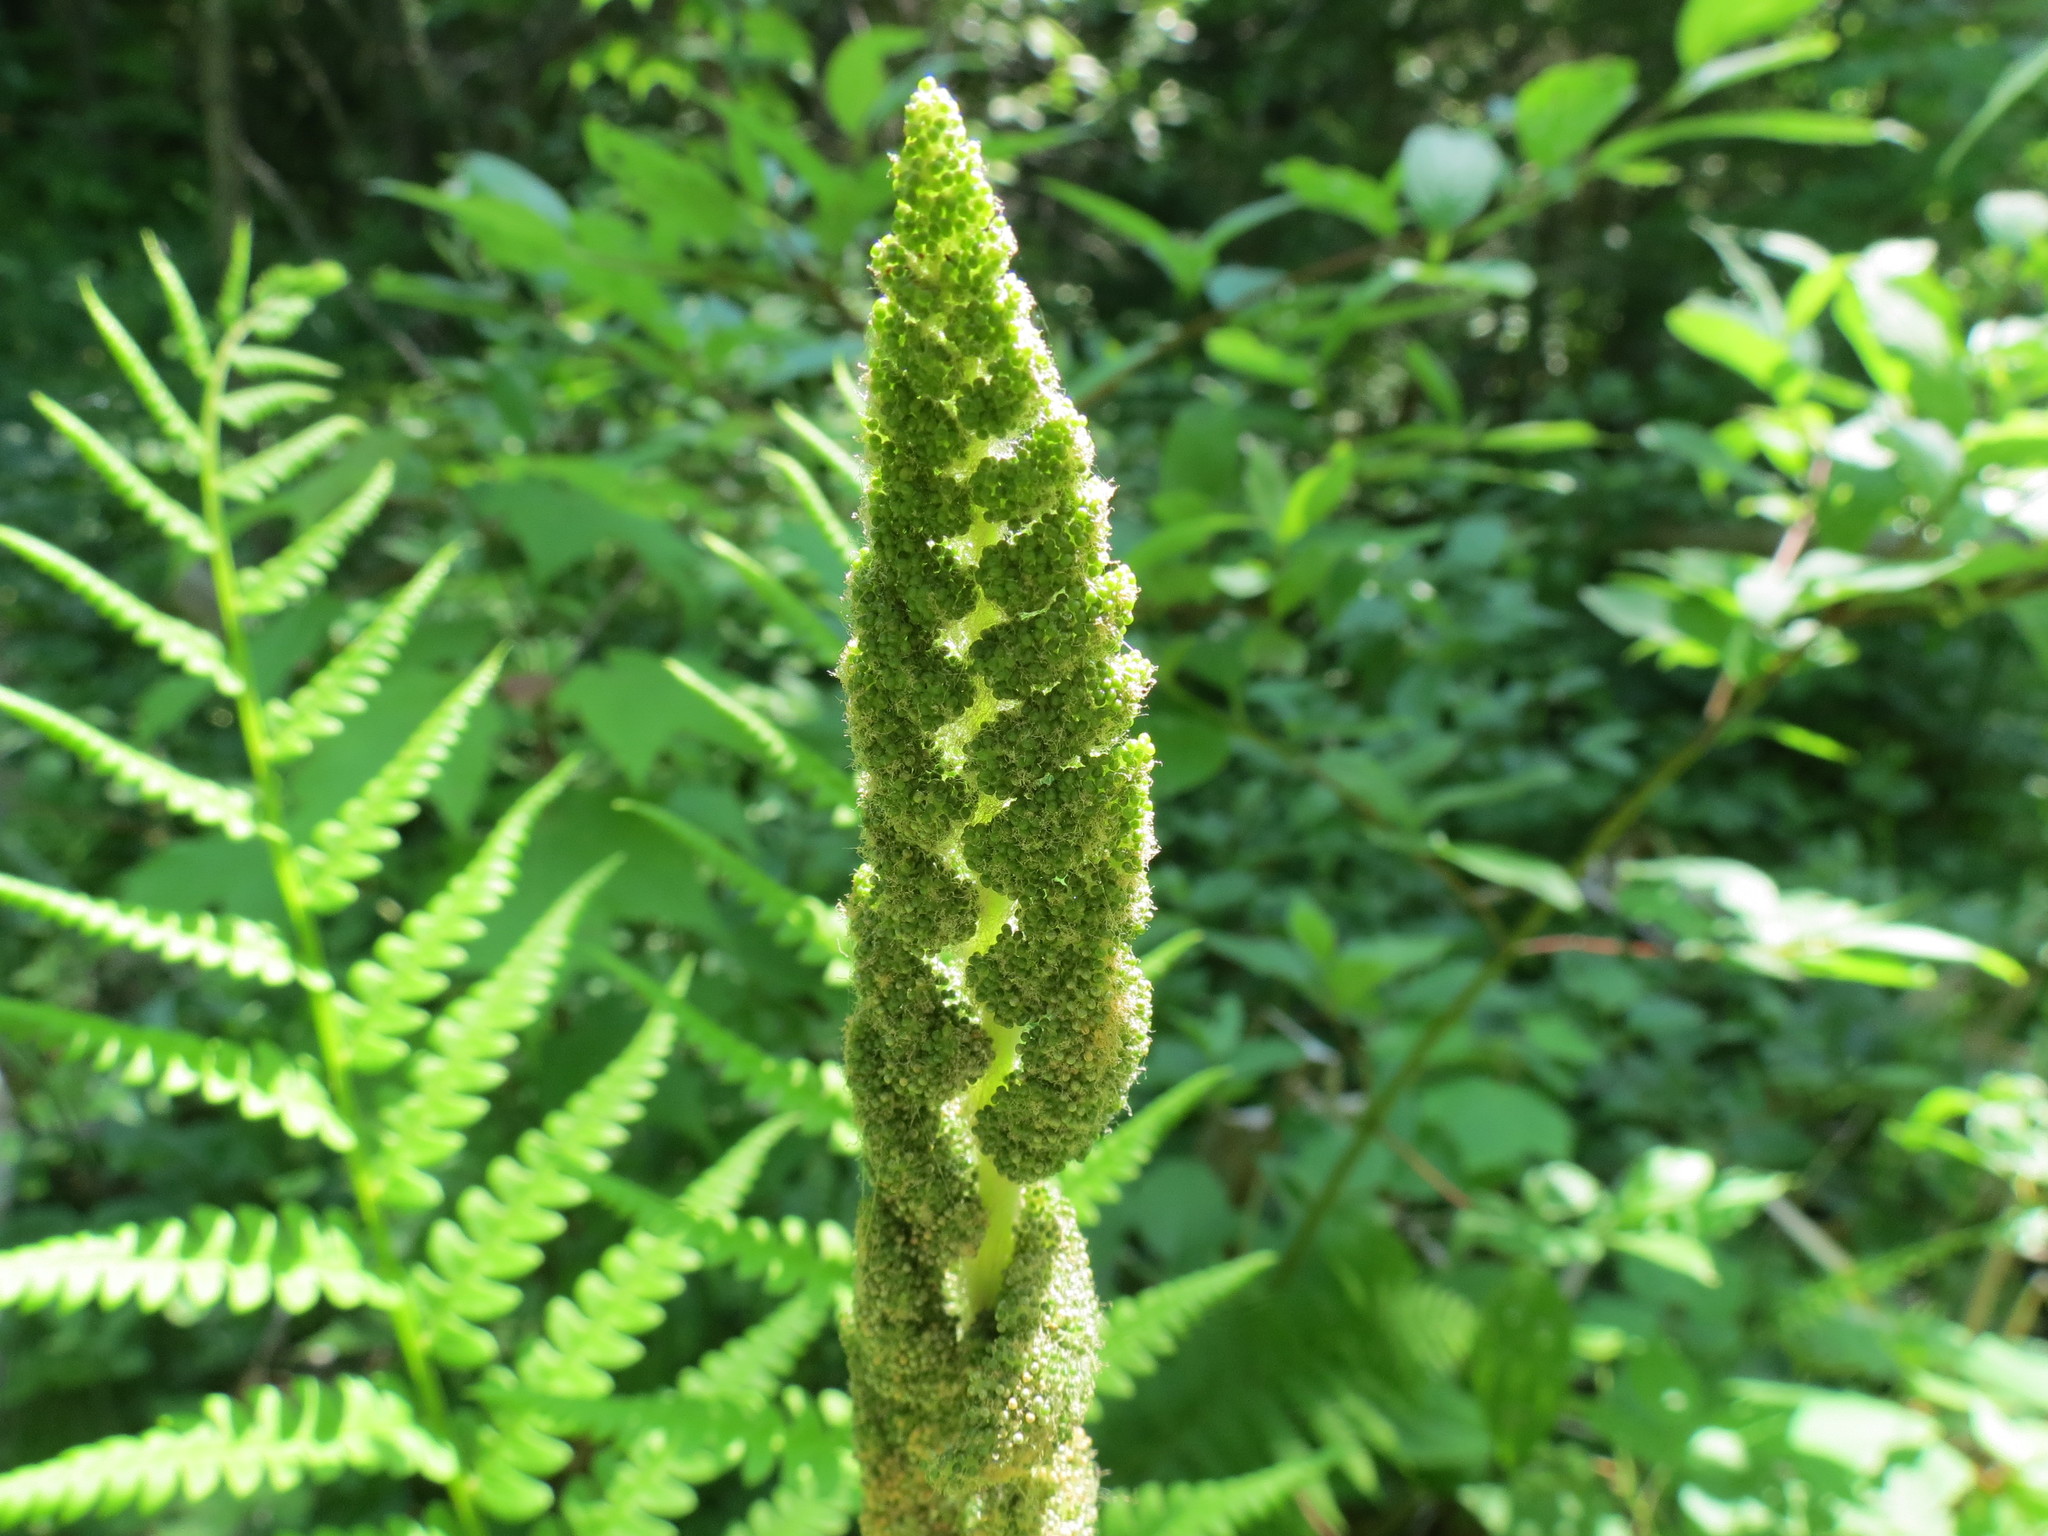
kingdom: Plantae
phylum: Tracheophyta
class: Polypodiopsida
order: Osmundales
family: Osmundaceae
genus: Osmundastrum
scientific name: Osmundastrum cinnamomeum
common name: Cinnamon fern
